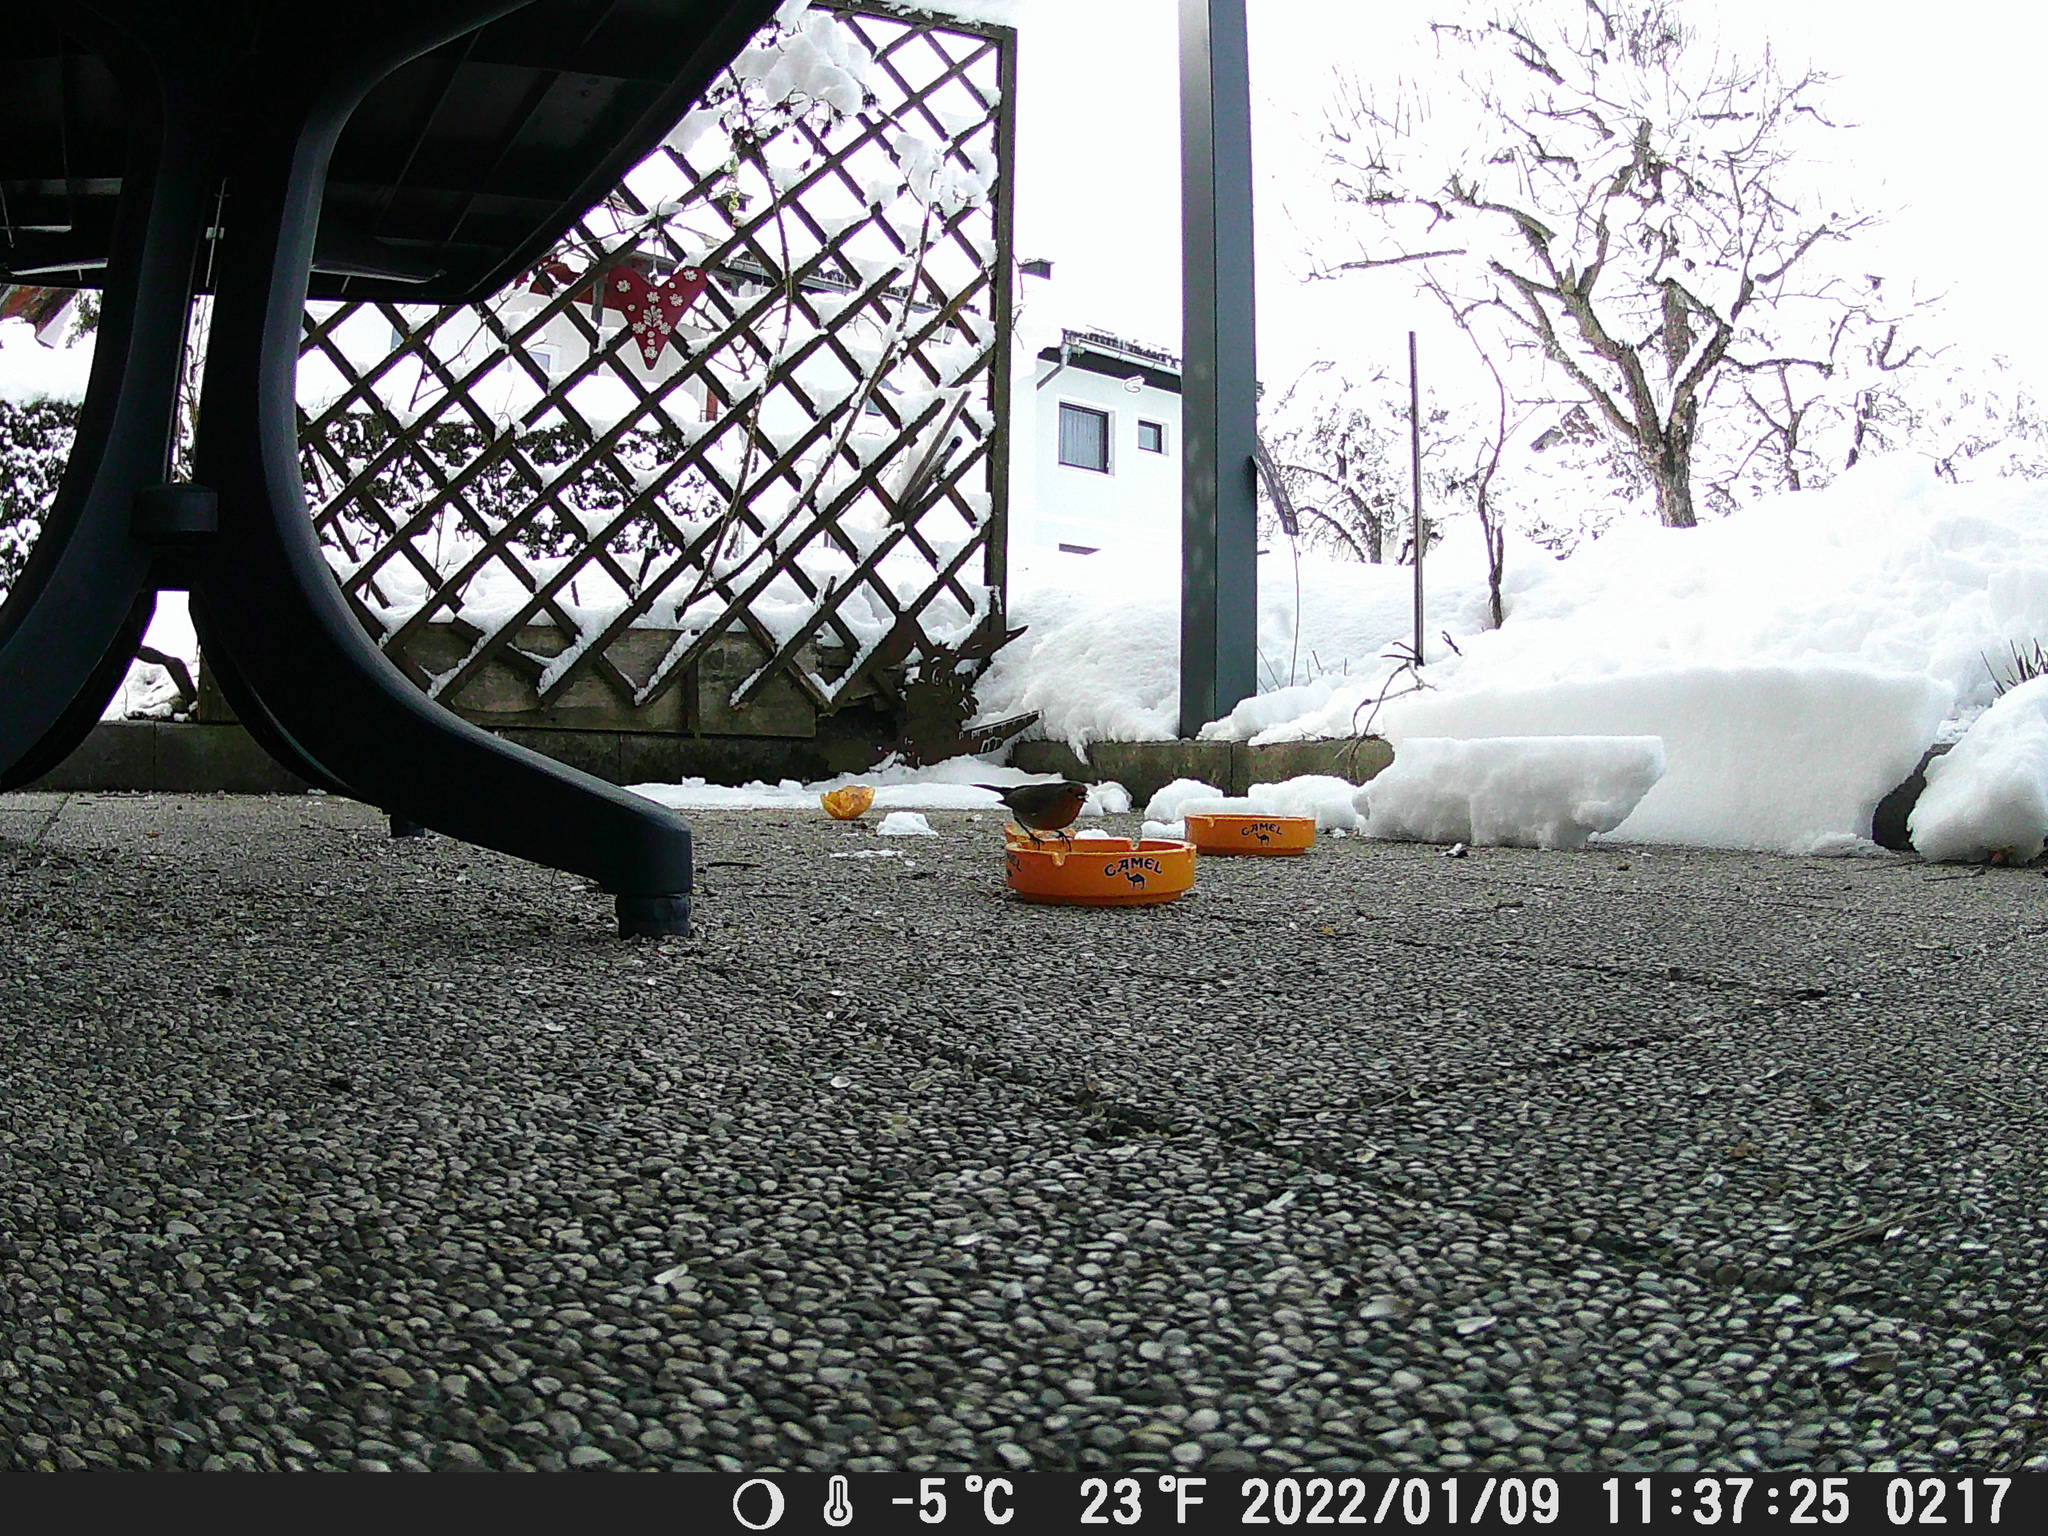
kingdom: Animalia
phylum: Chordata
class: Aves
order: Passeriformes
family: Muscicapidae
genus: Erithacus
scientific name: Erithacus rubecula
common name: European robin
